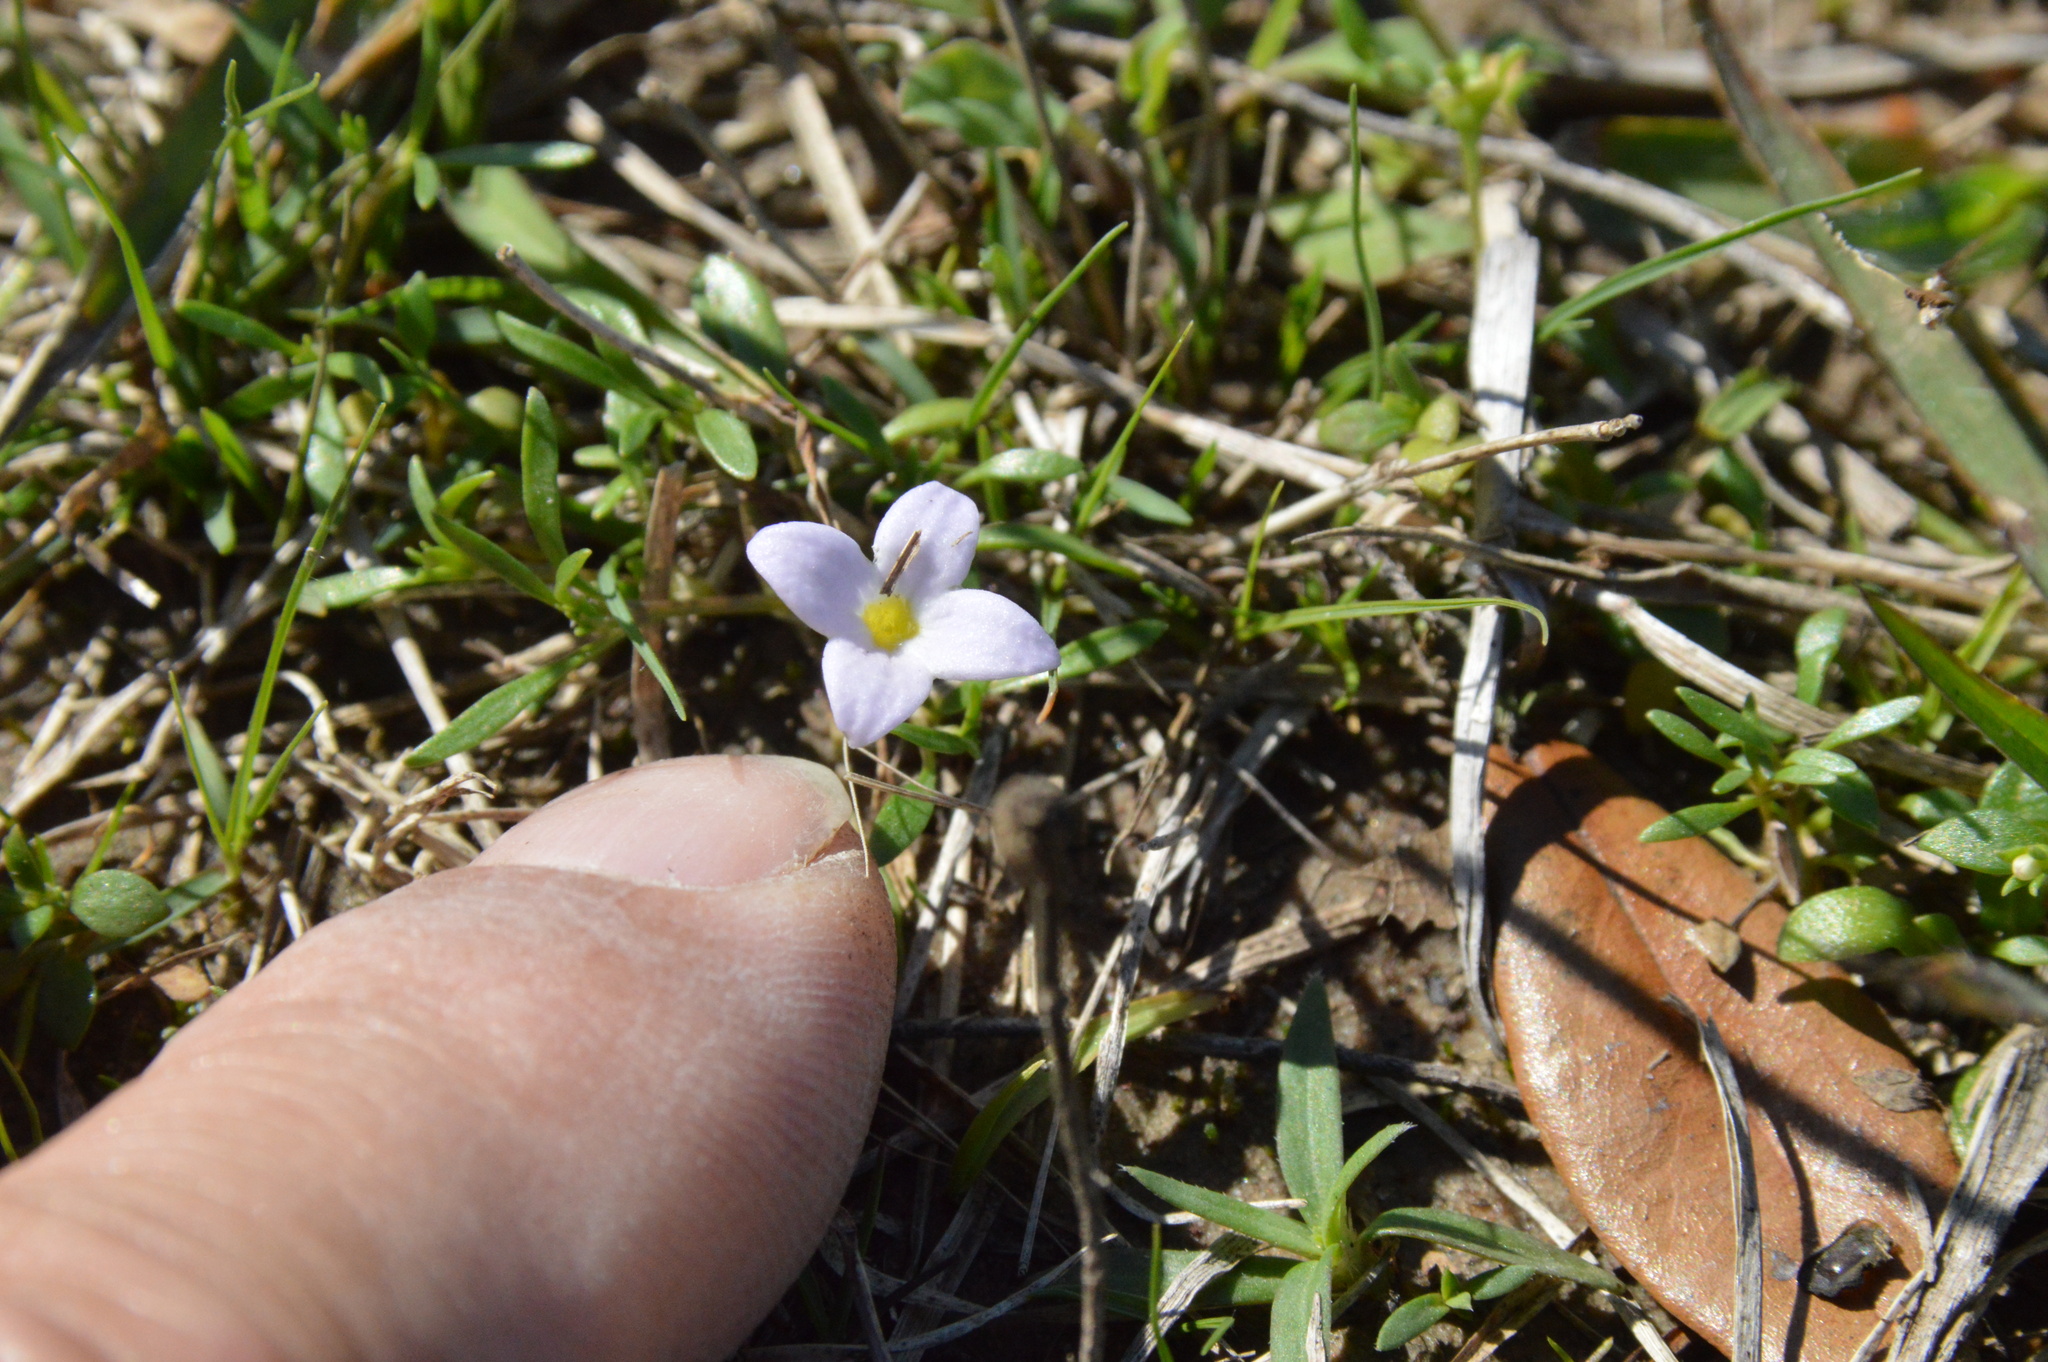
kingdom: Plantae
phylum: Tracheophyta
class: Magnoliopsida
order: Gentianales
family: Rubiaceae
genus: Houstonia
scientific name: Houstonia rosea
